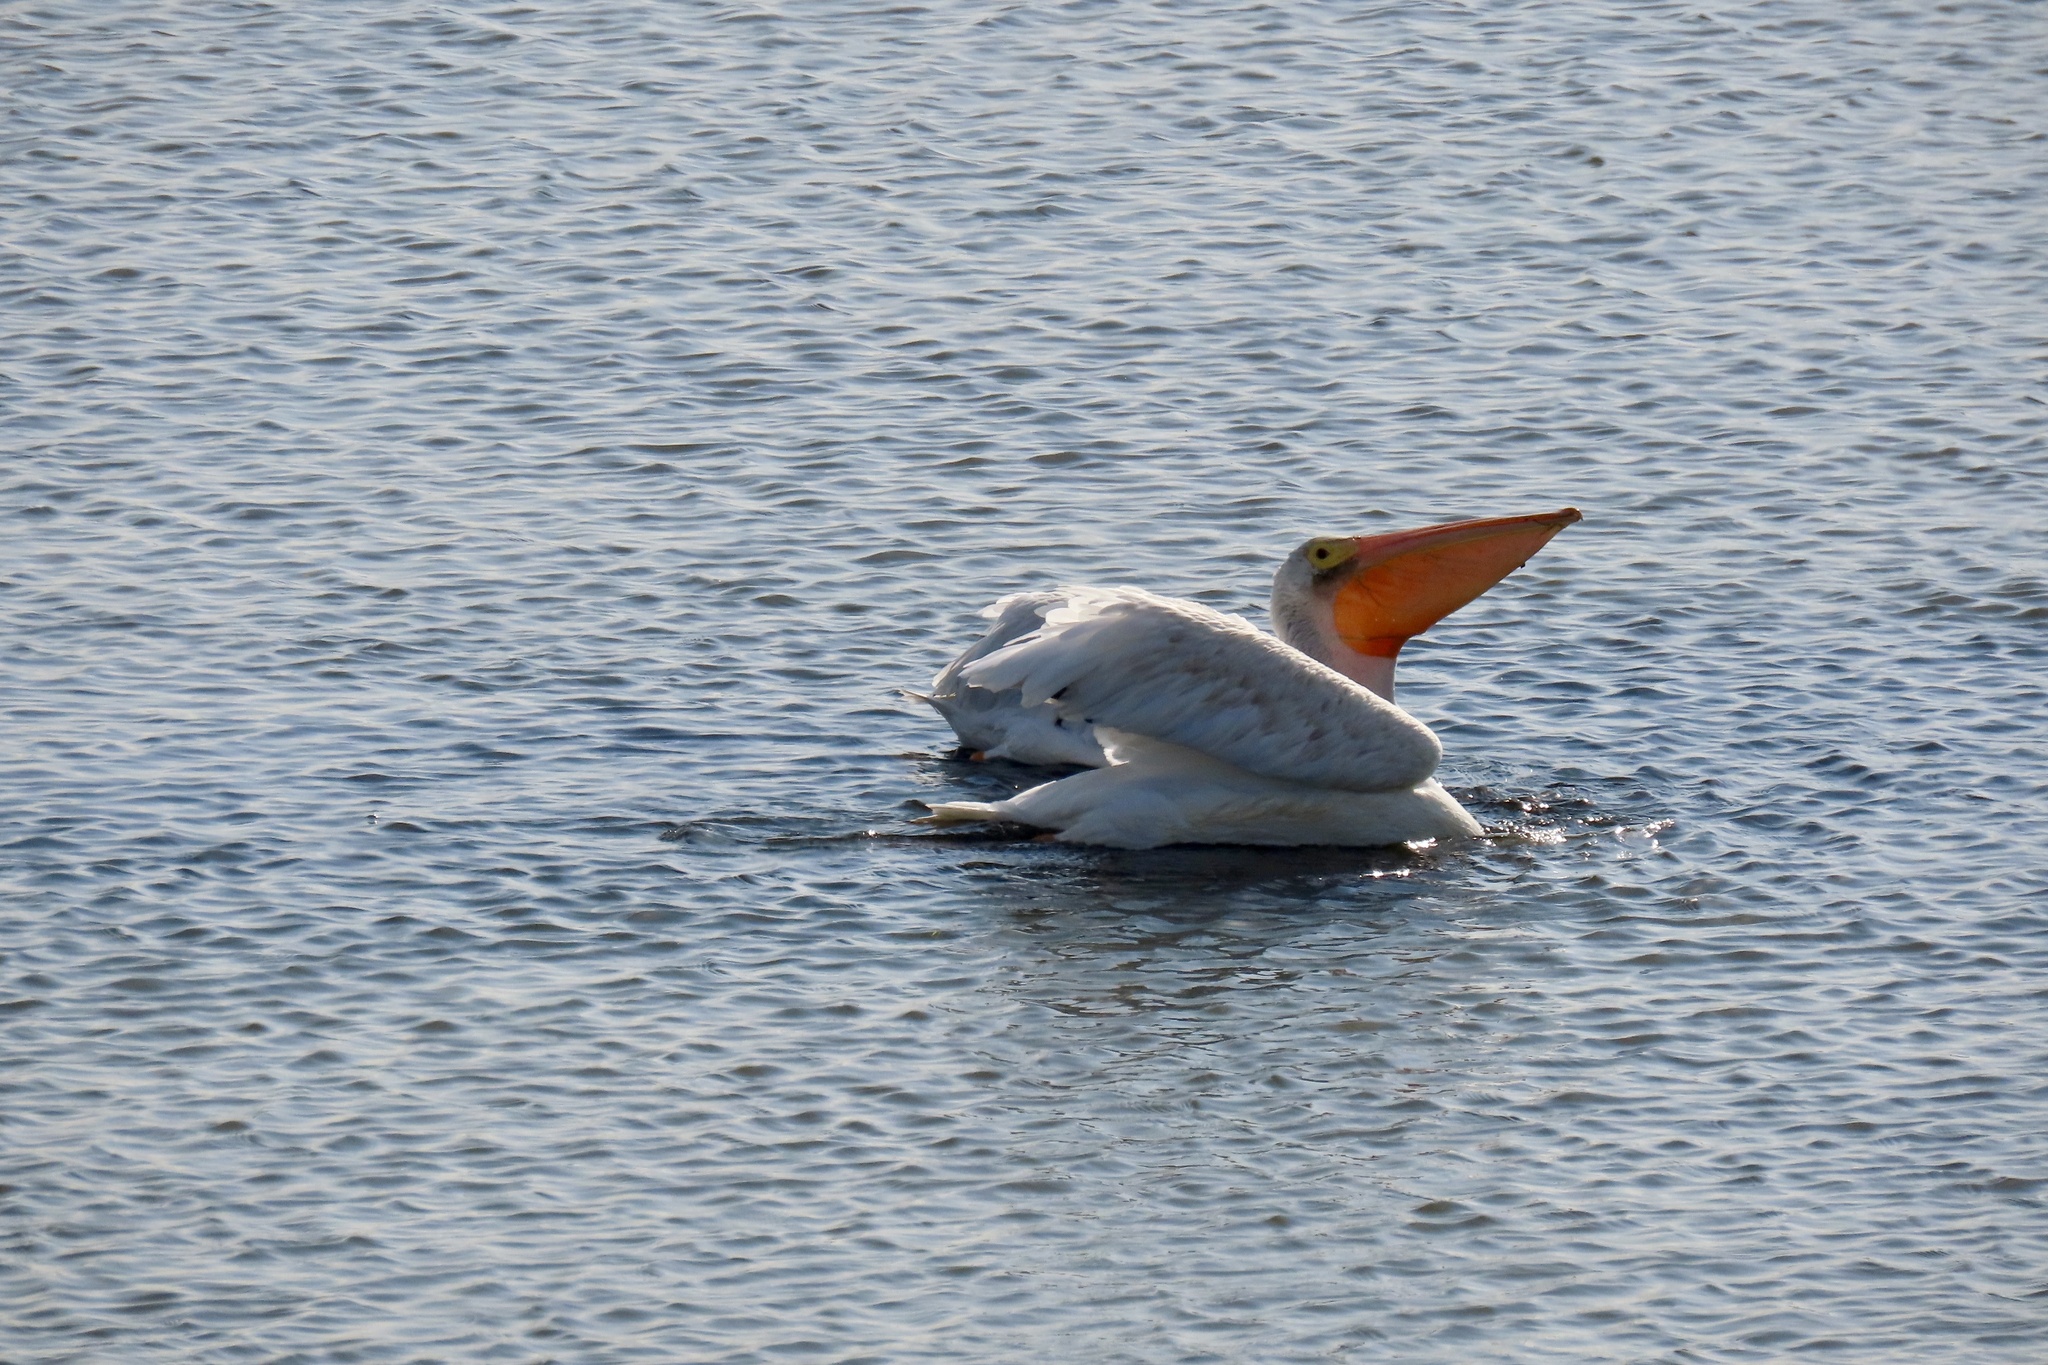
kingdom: Animalia
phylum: Chordata
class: Aves
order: Pelecaniformes
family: Pelecanidae
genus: Pelecanus
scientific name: Pelecanus erythrorhynchos
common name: American white pelican
